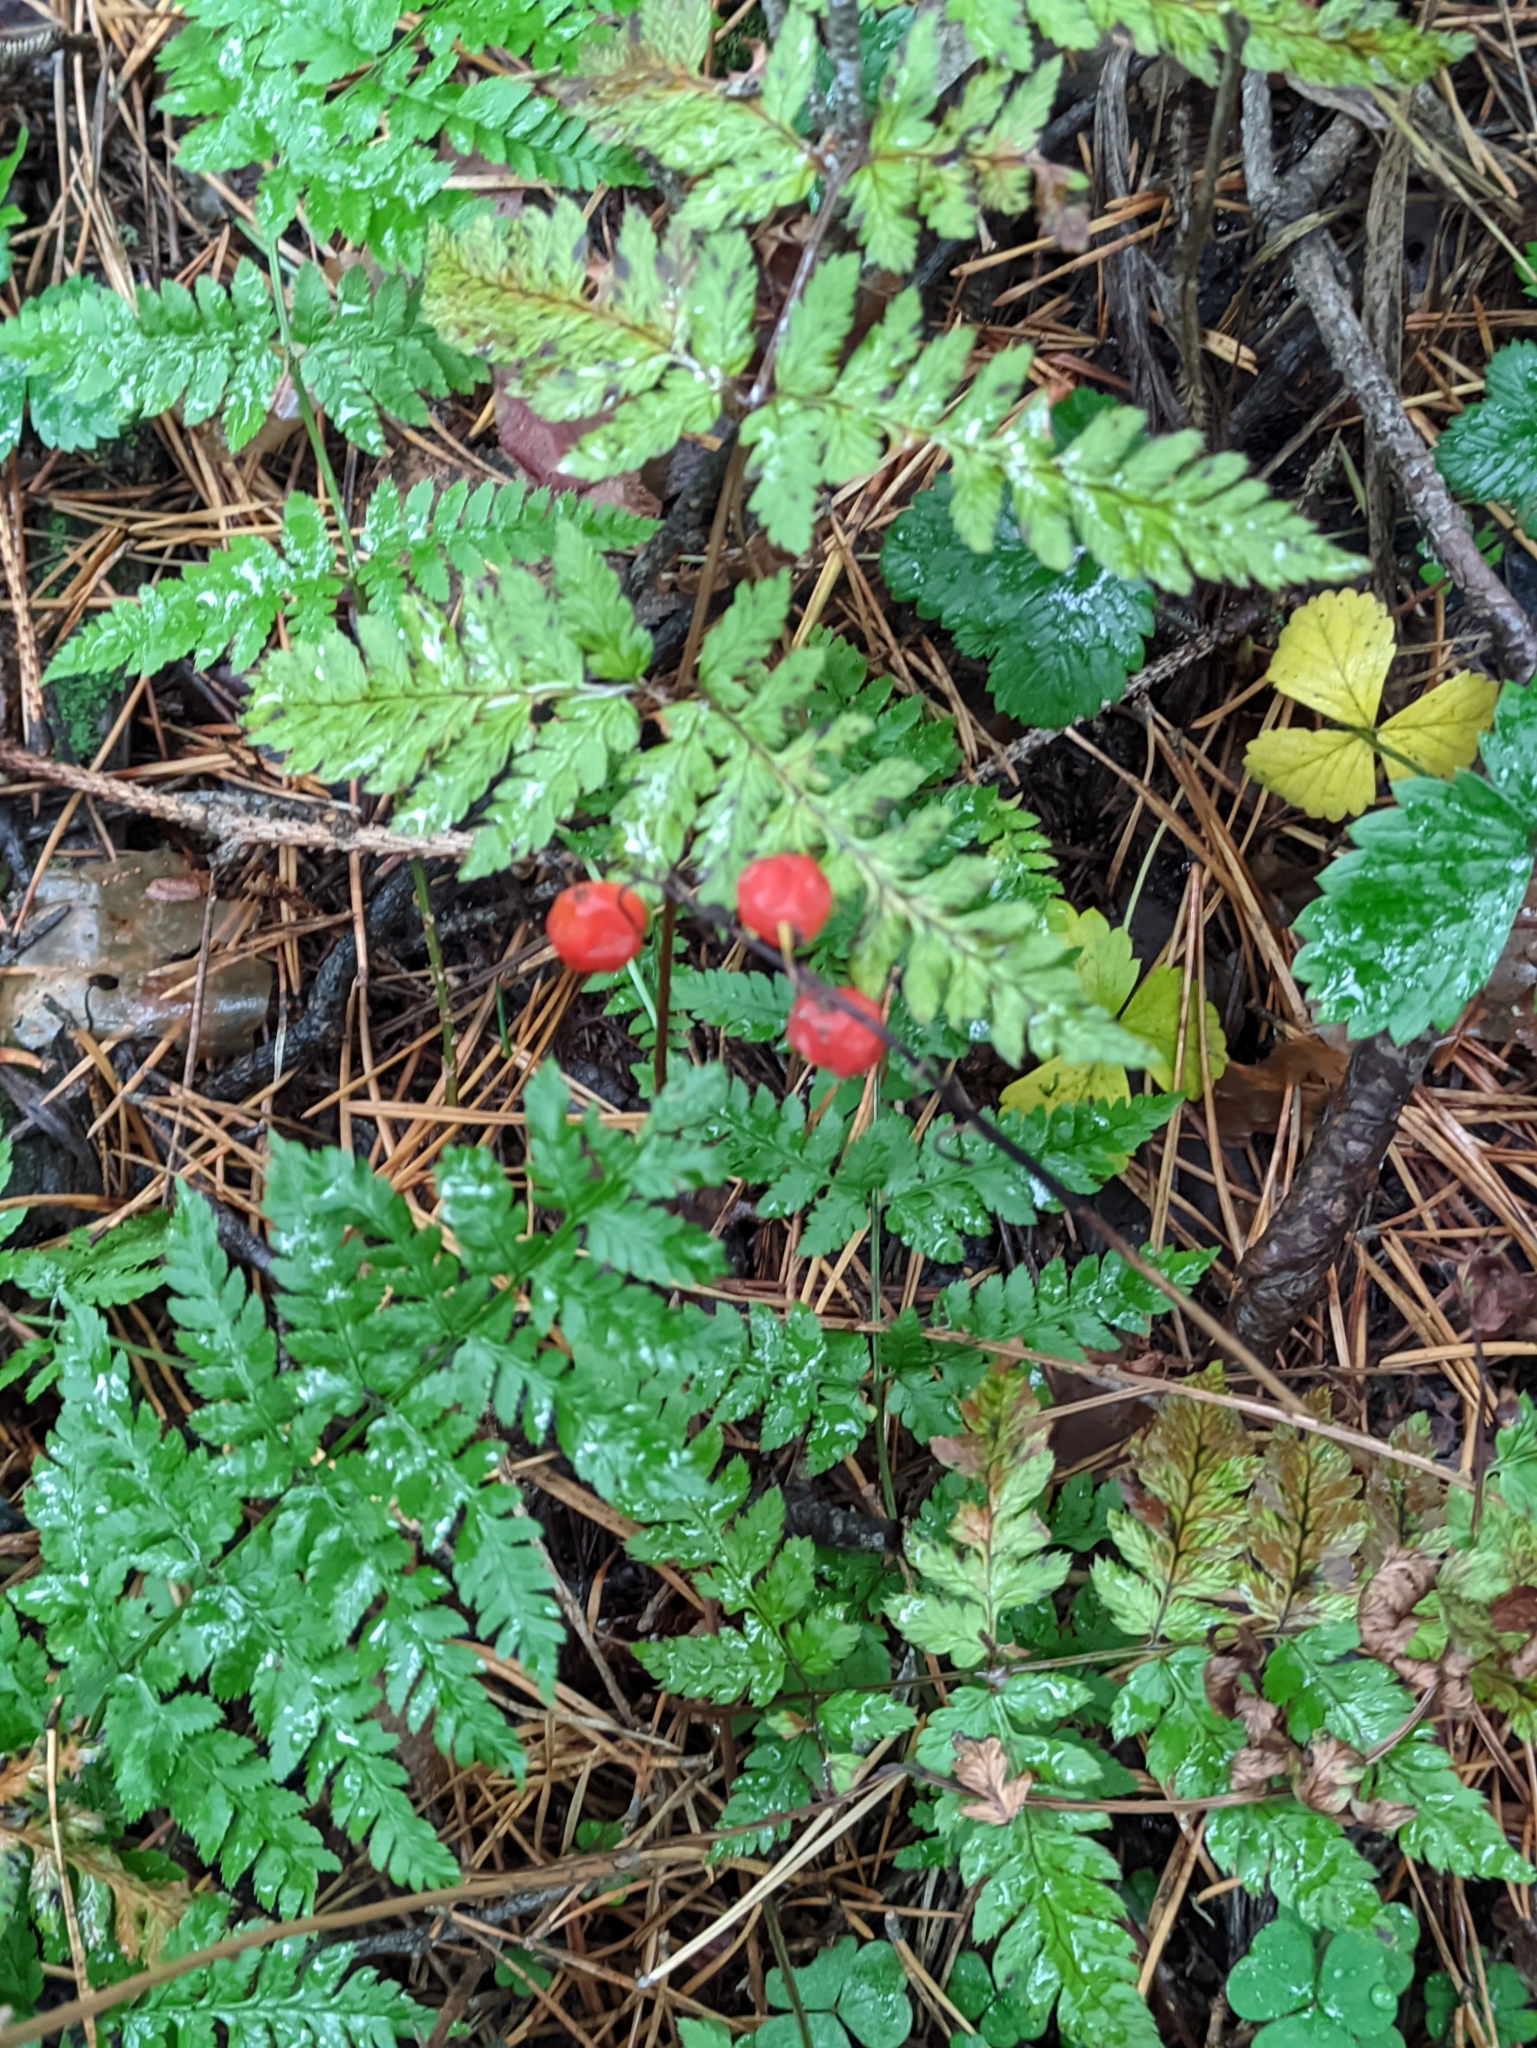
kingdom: Plantae
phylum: Tracheophyta
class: Liliopsida
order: Asparagales
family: Asparagaceae
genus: Convallaria
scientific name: Convallaria majalis
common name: Lily-of-the-valley
